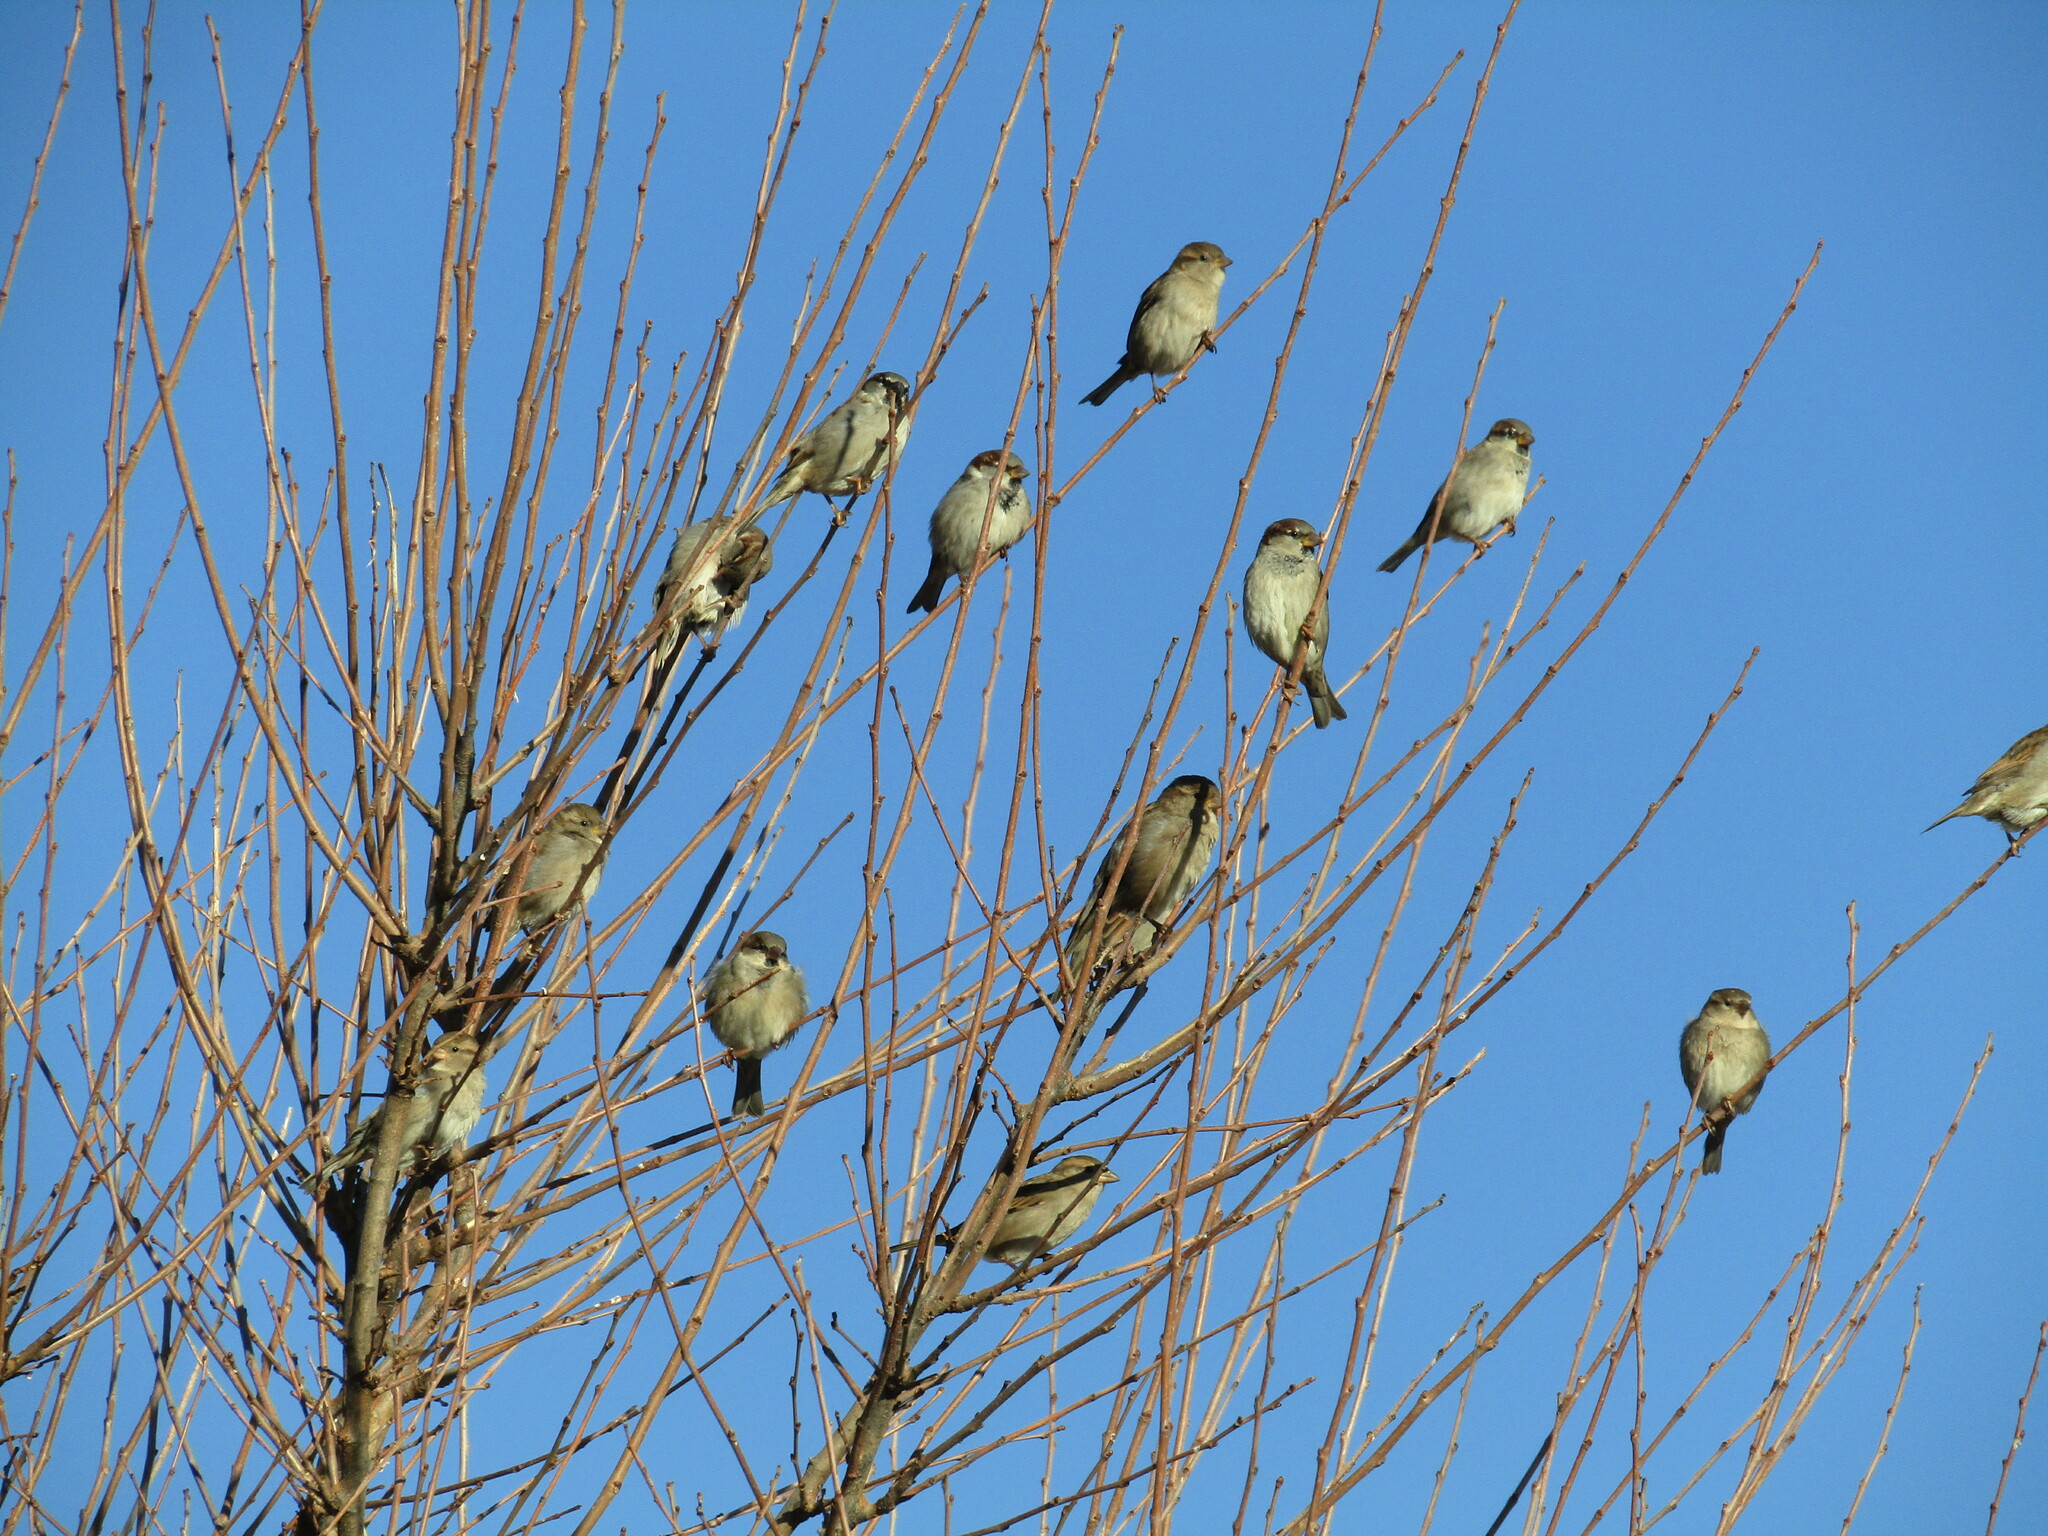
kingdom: Animalia
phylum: Chordata
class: Aves
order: Passeriformes
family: Passeridae
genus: Passer
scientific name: Passer domesticus
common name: House sparrow
